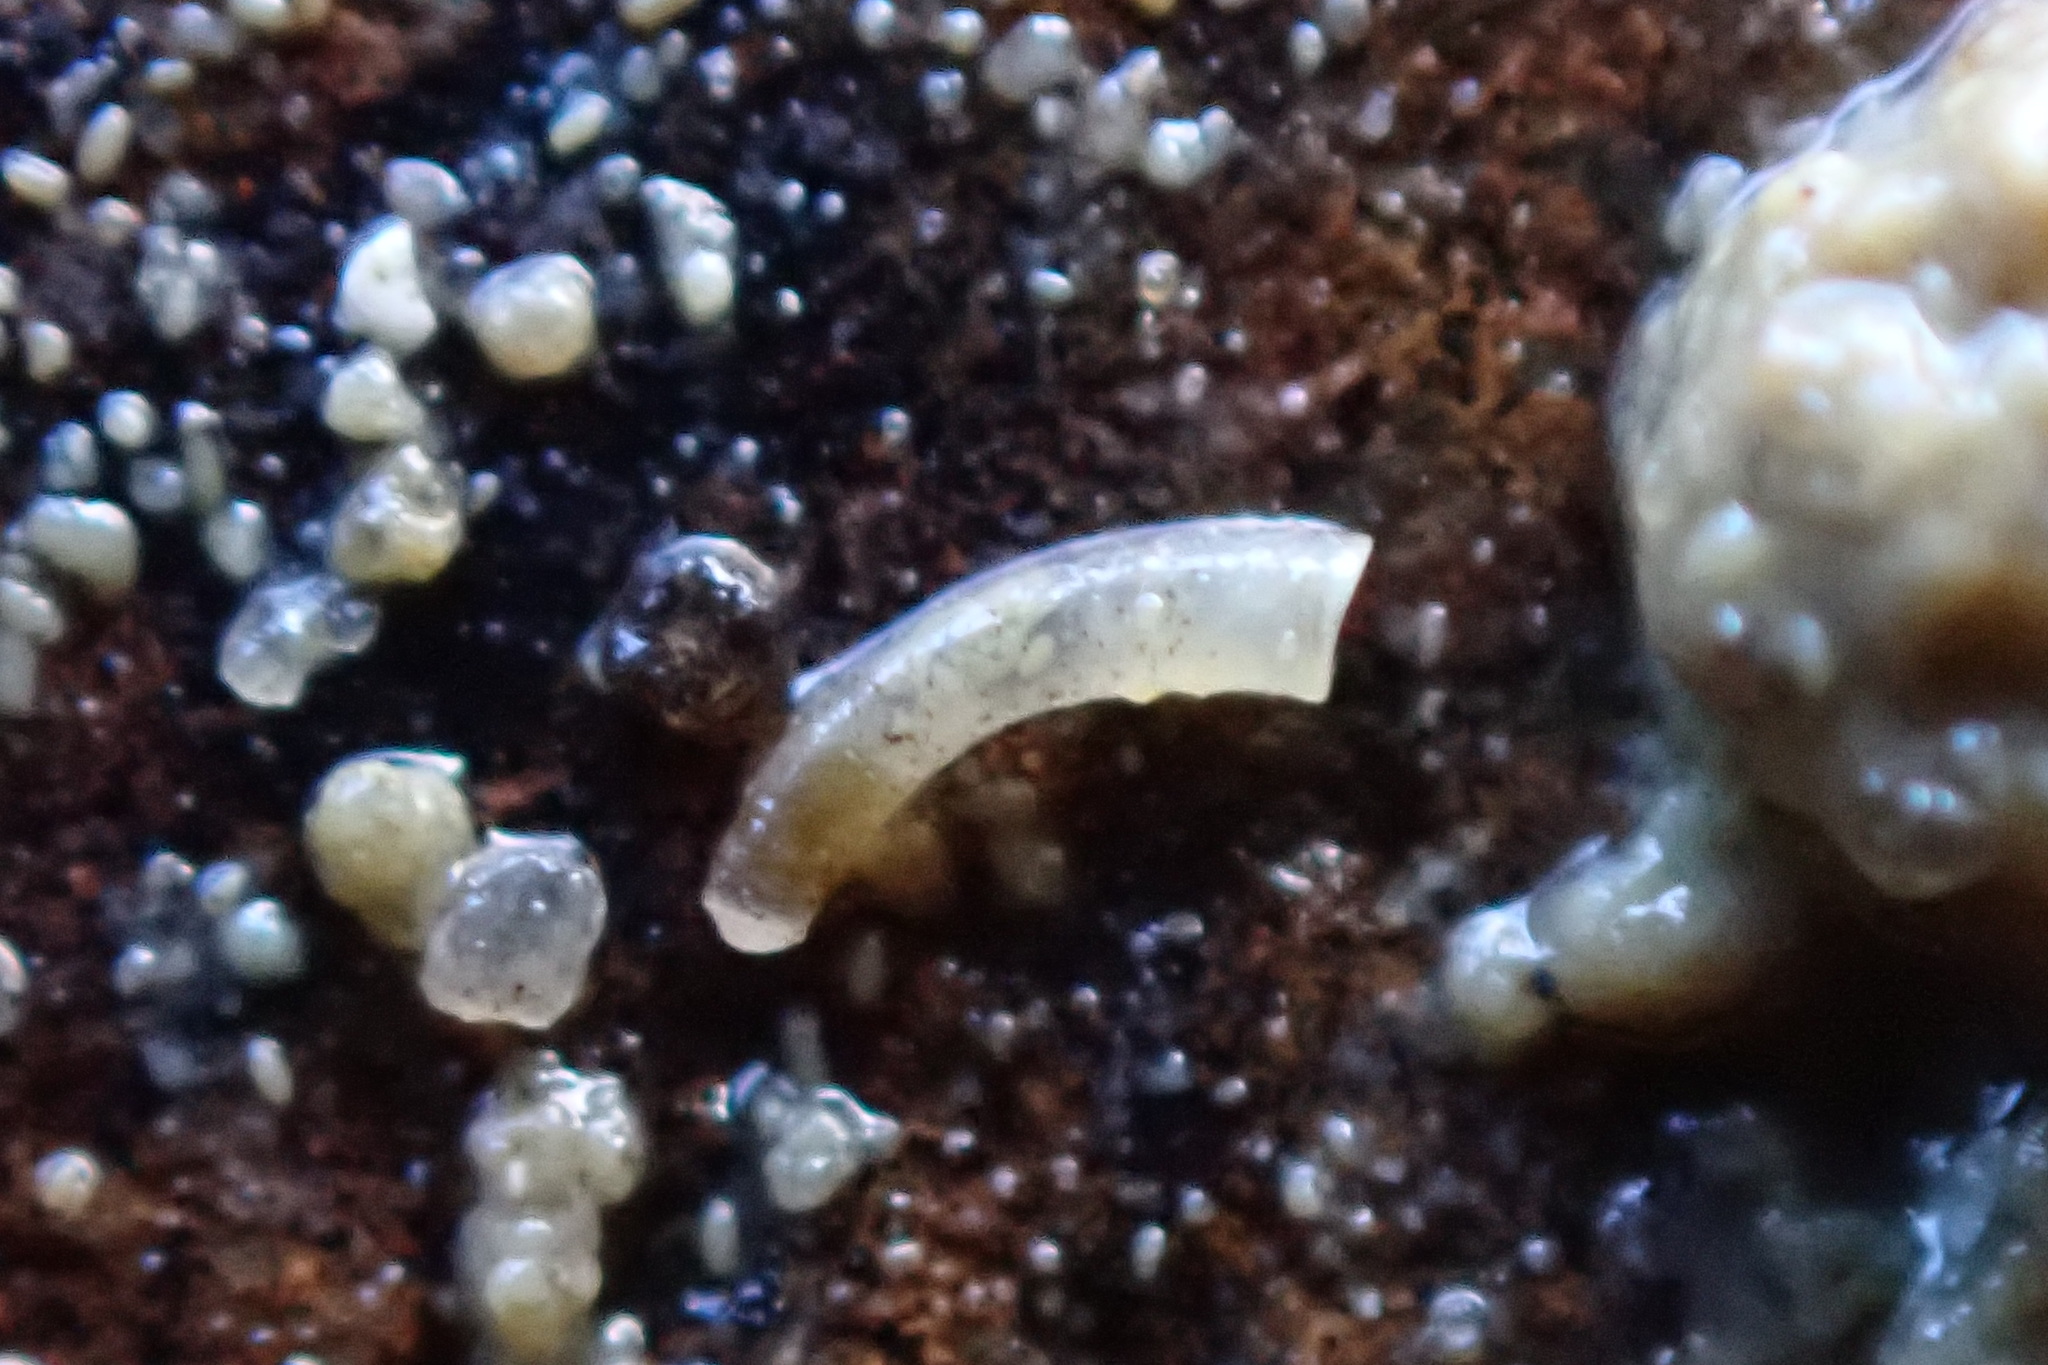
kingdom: Animalia
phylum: Mollusca
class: Gastropoda
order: Littorinimorpha
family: Caecidae
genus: Caecum
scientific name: Caecum
